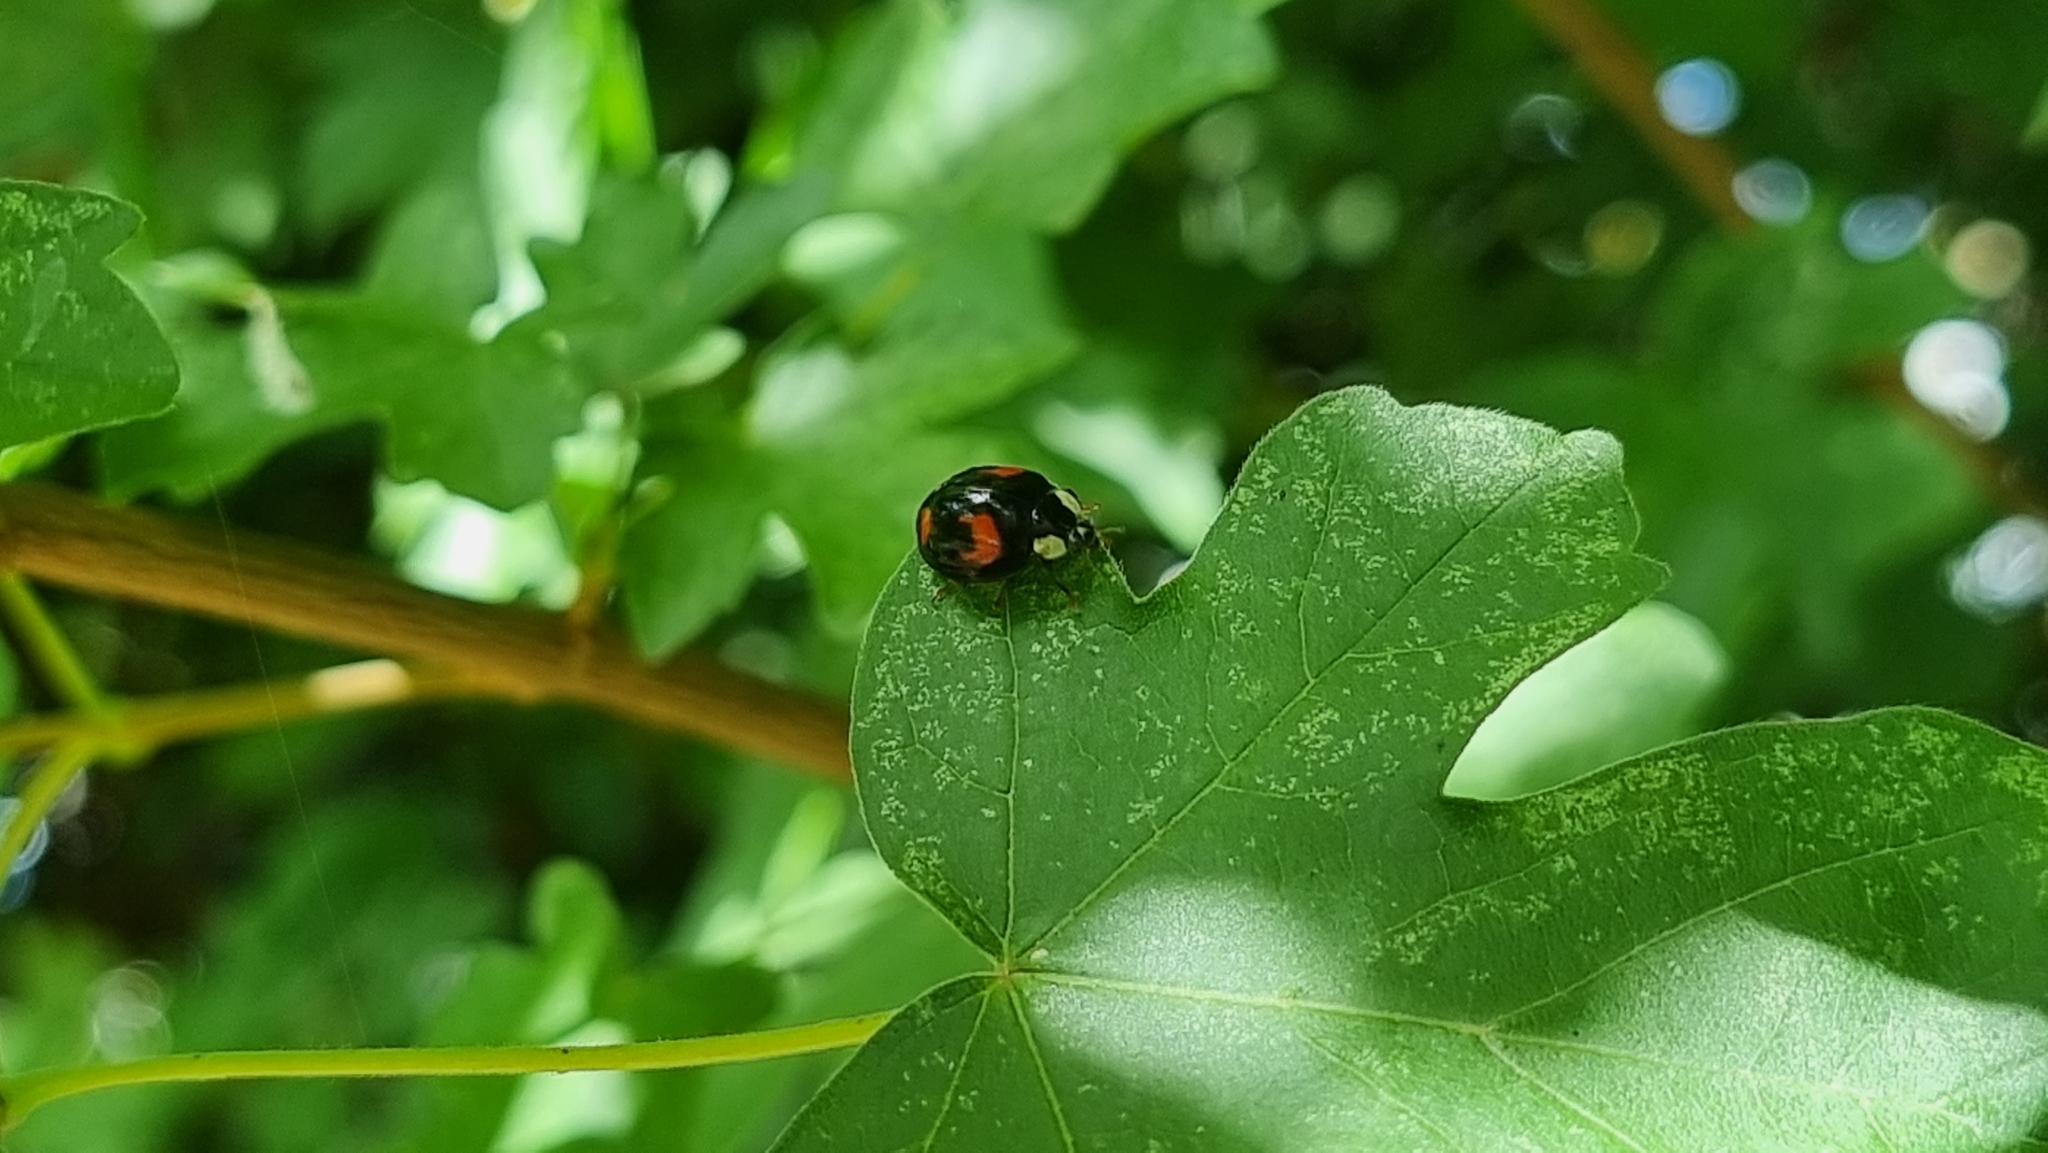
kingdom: Animalia
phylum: Arthropoda
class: Insecta
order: Coleoptera
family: Coccinellidae
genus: Harmonia
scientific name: Harmonia axyridis
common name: Harlequin ladybird
